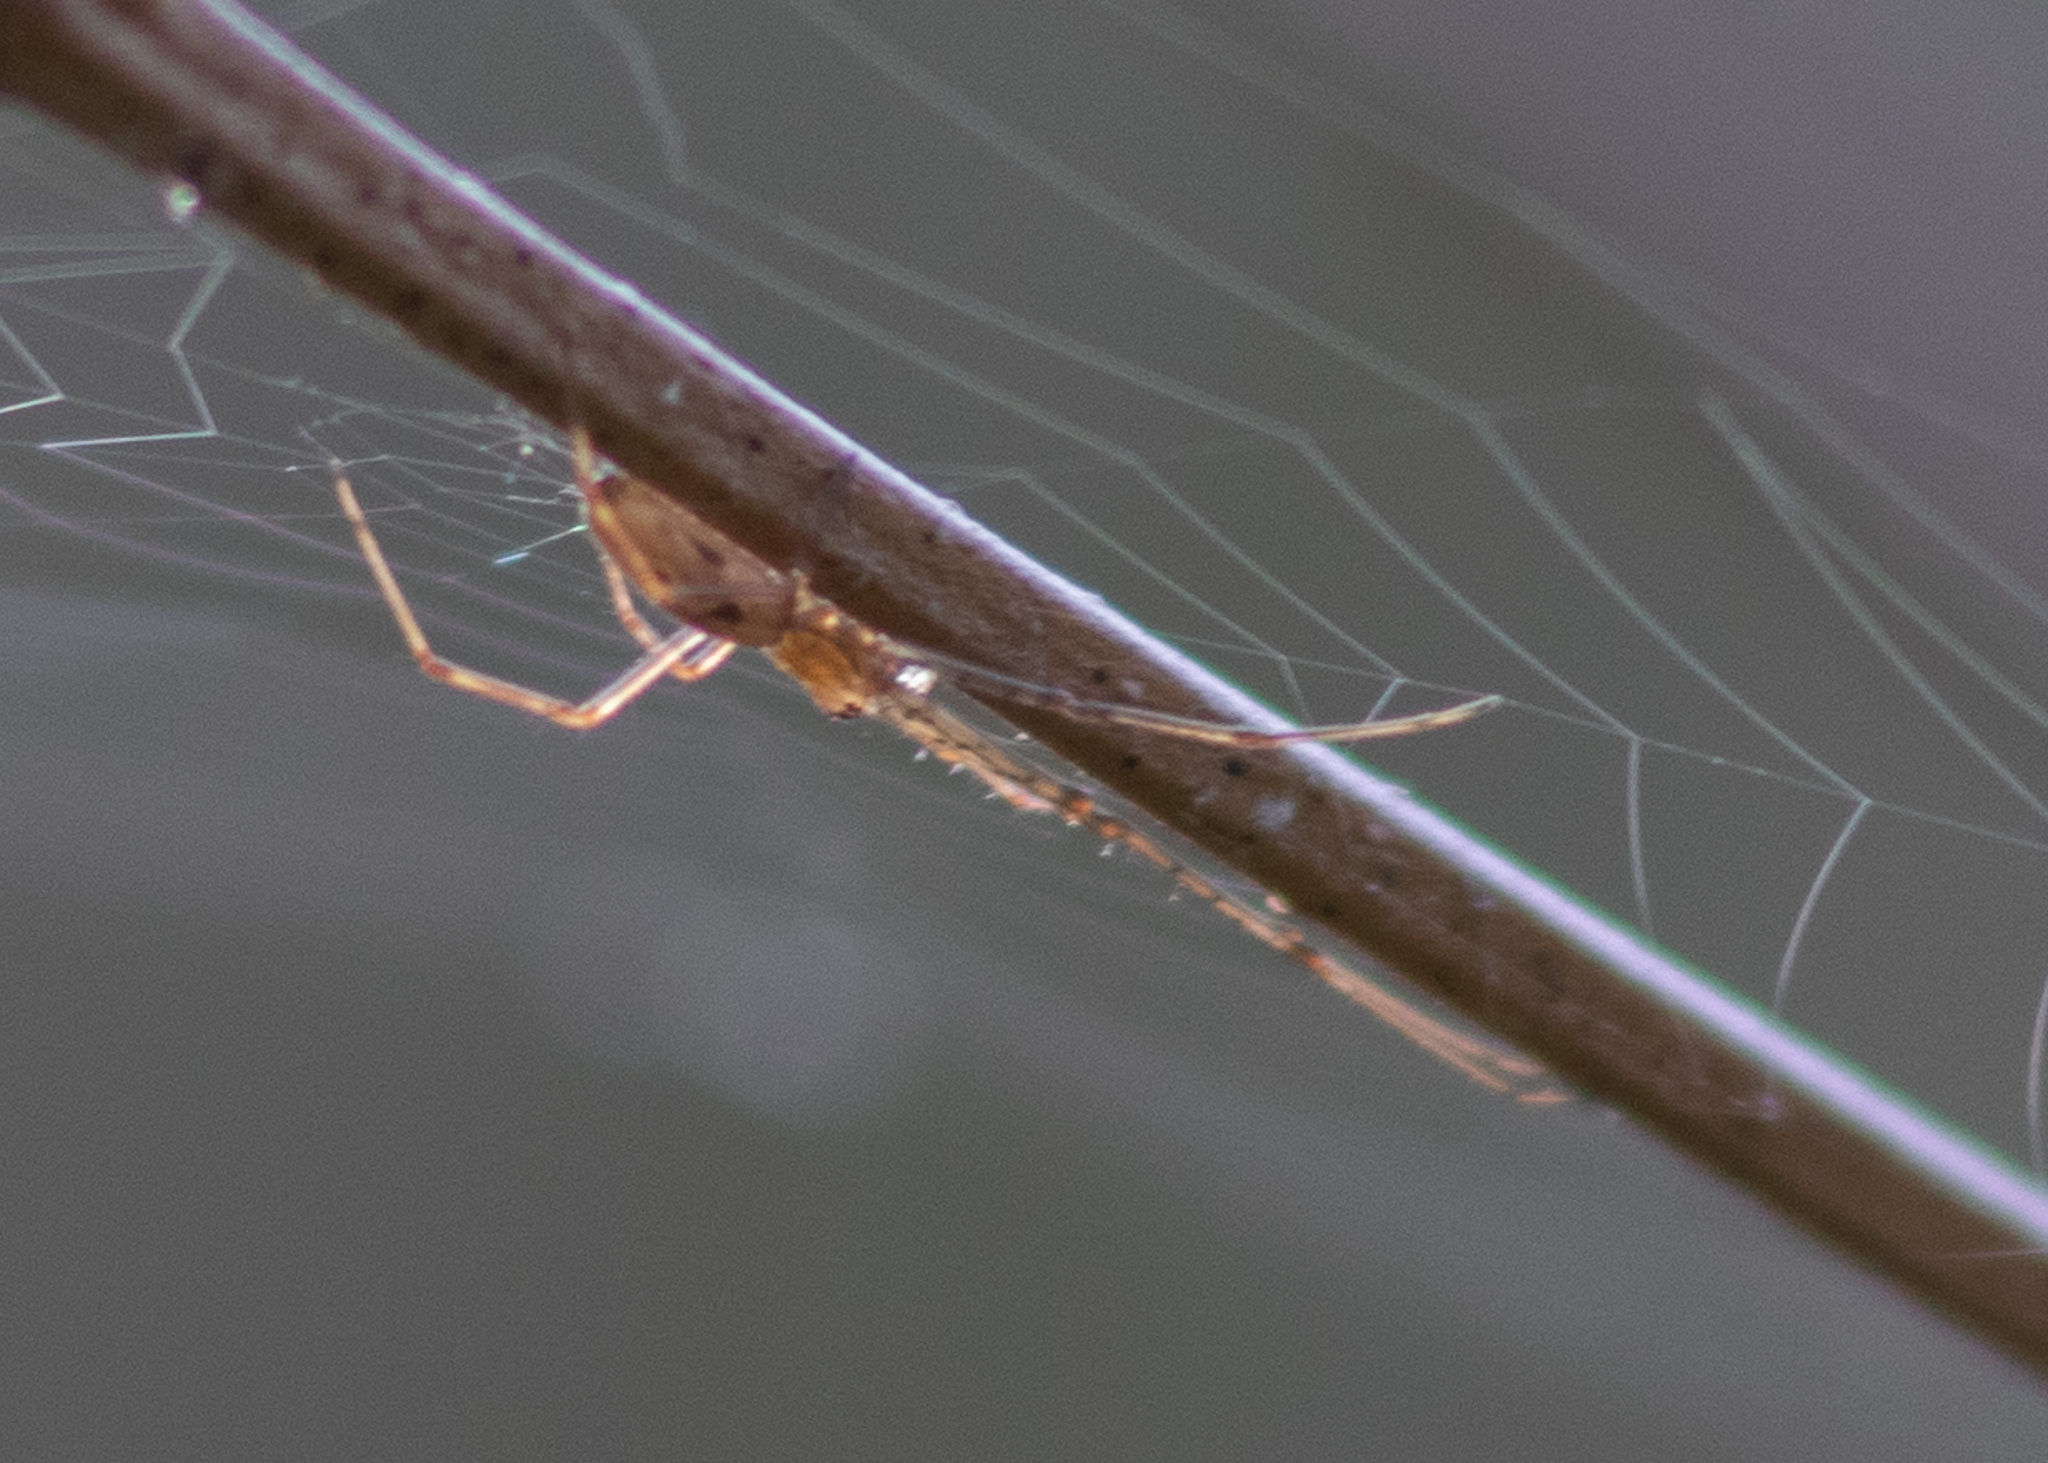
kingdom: Animalia
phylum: Arthropoda
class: Arachnida
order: Araneae
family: Tetragnathidae
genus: Tetragnatha
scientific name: Tetragnatha
